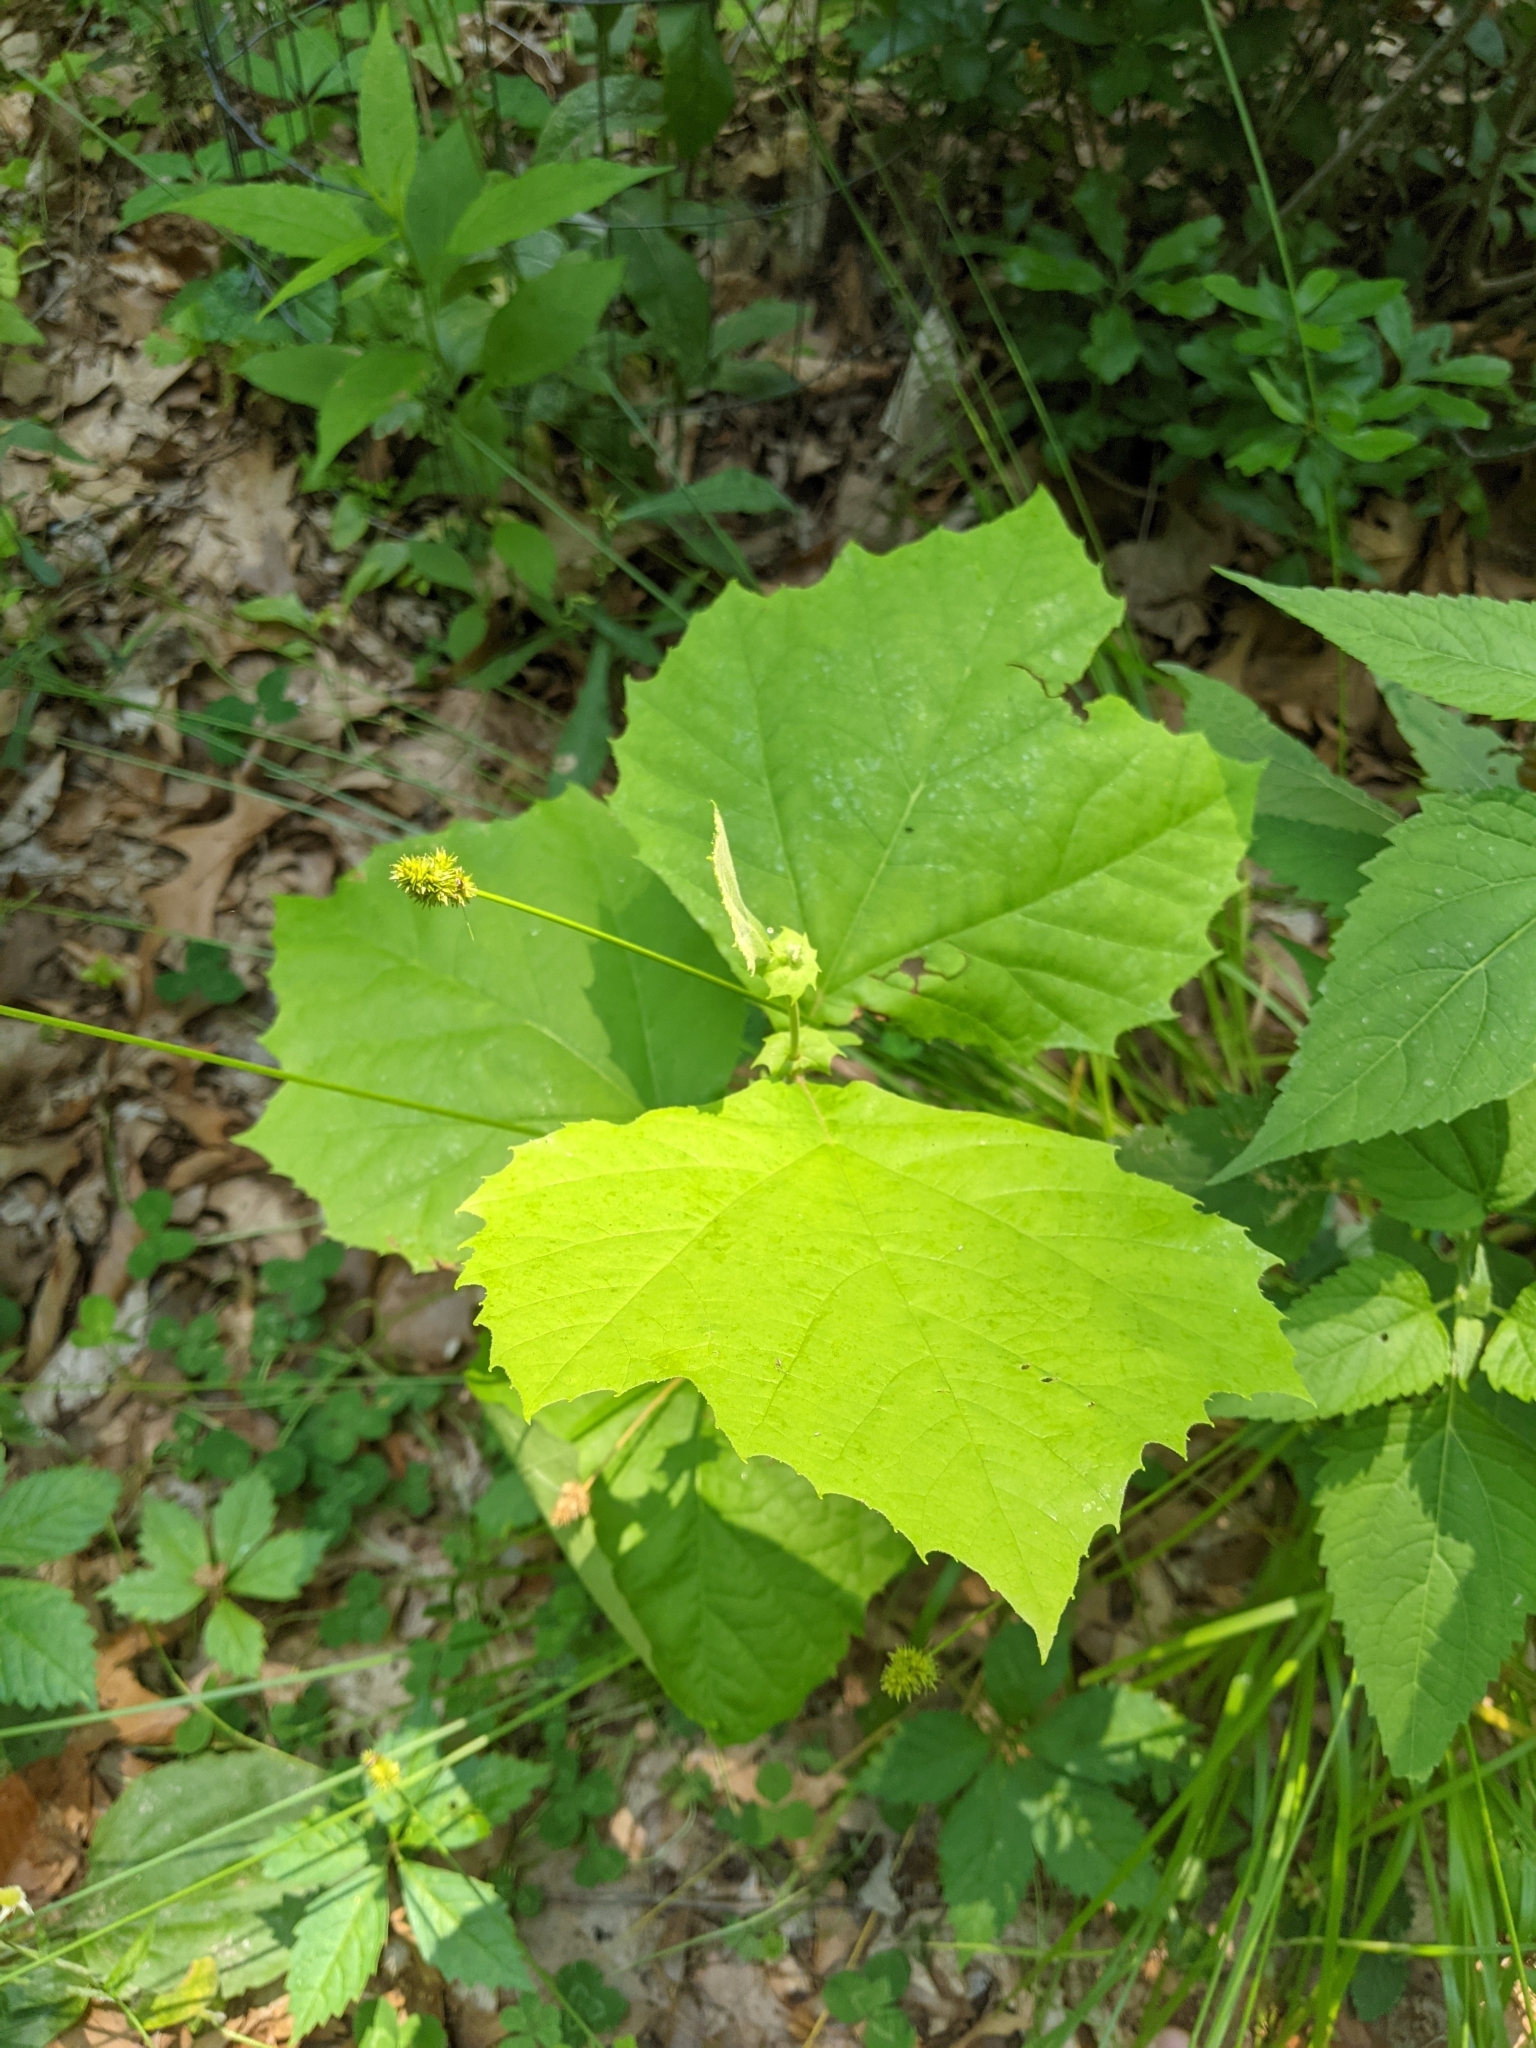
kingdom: Plantae
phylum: Tracheophyta
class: Magnoliopsida
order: Proteales
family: Platanaceae
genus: Platanus
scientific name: Platanus occidentalis
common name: American sycamore
